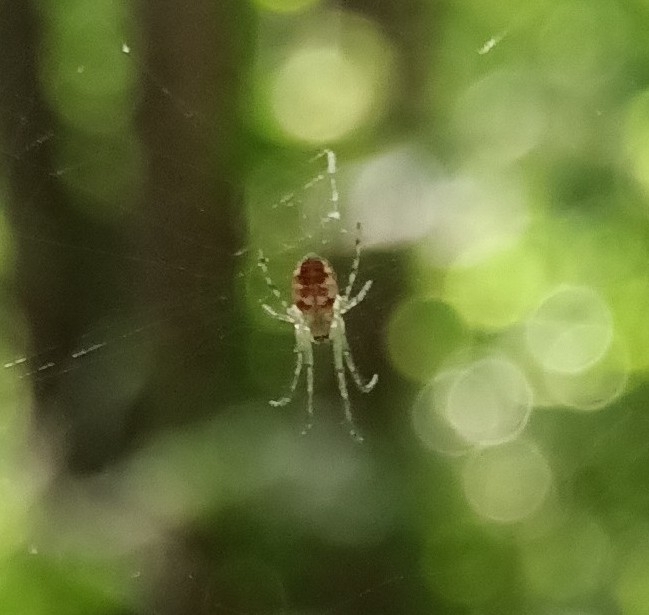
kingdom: Animalia
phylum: Arthropoda
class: Arachnida
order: Araneae
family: Tetragnathidae
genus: Metellina
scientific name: Metellina
